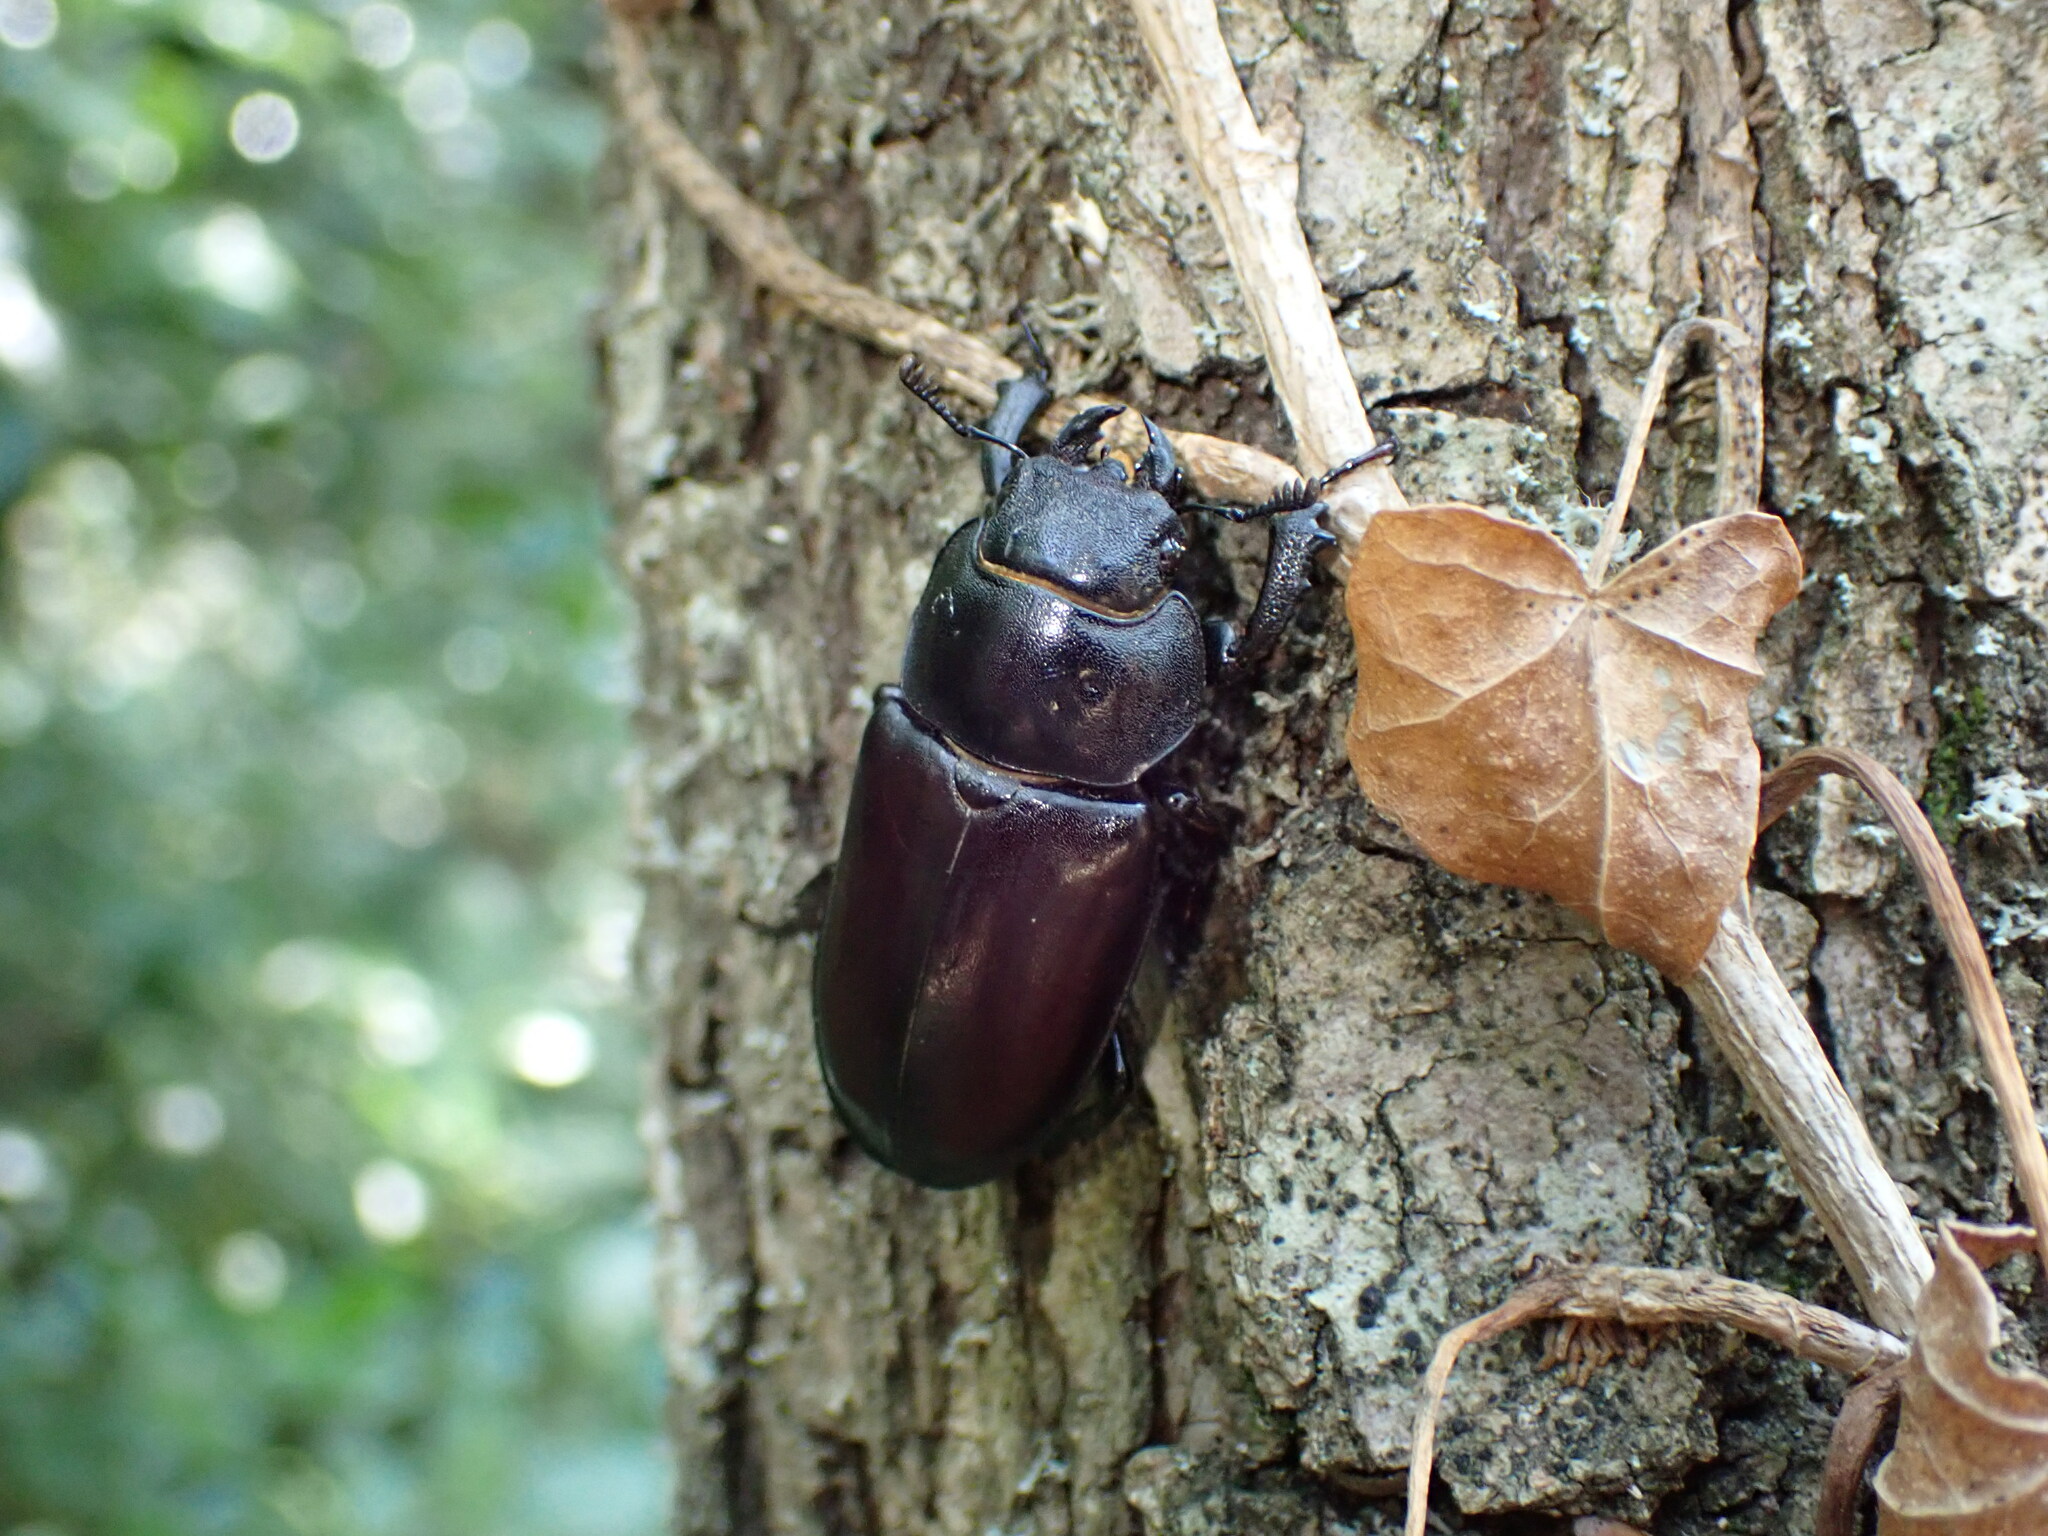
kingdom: Animalia
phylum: Arthropoda
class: Insecta
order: Coleoptera
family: Lucanidae
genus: Lucanus
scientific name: Lucanus cervus
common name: Stag beetle
